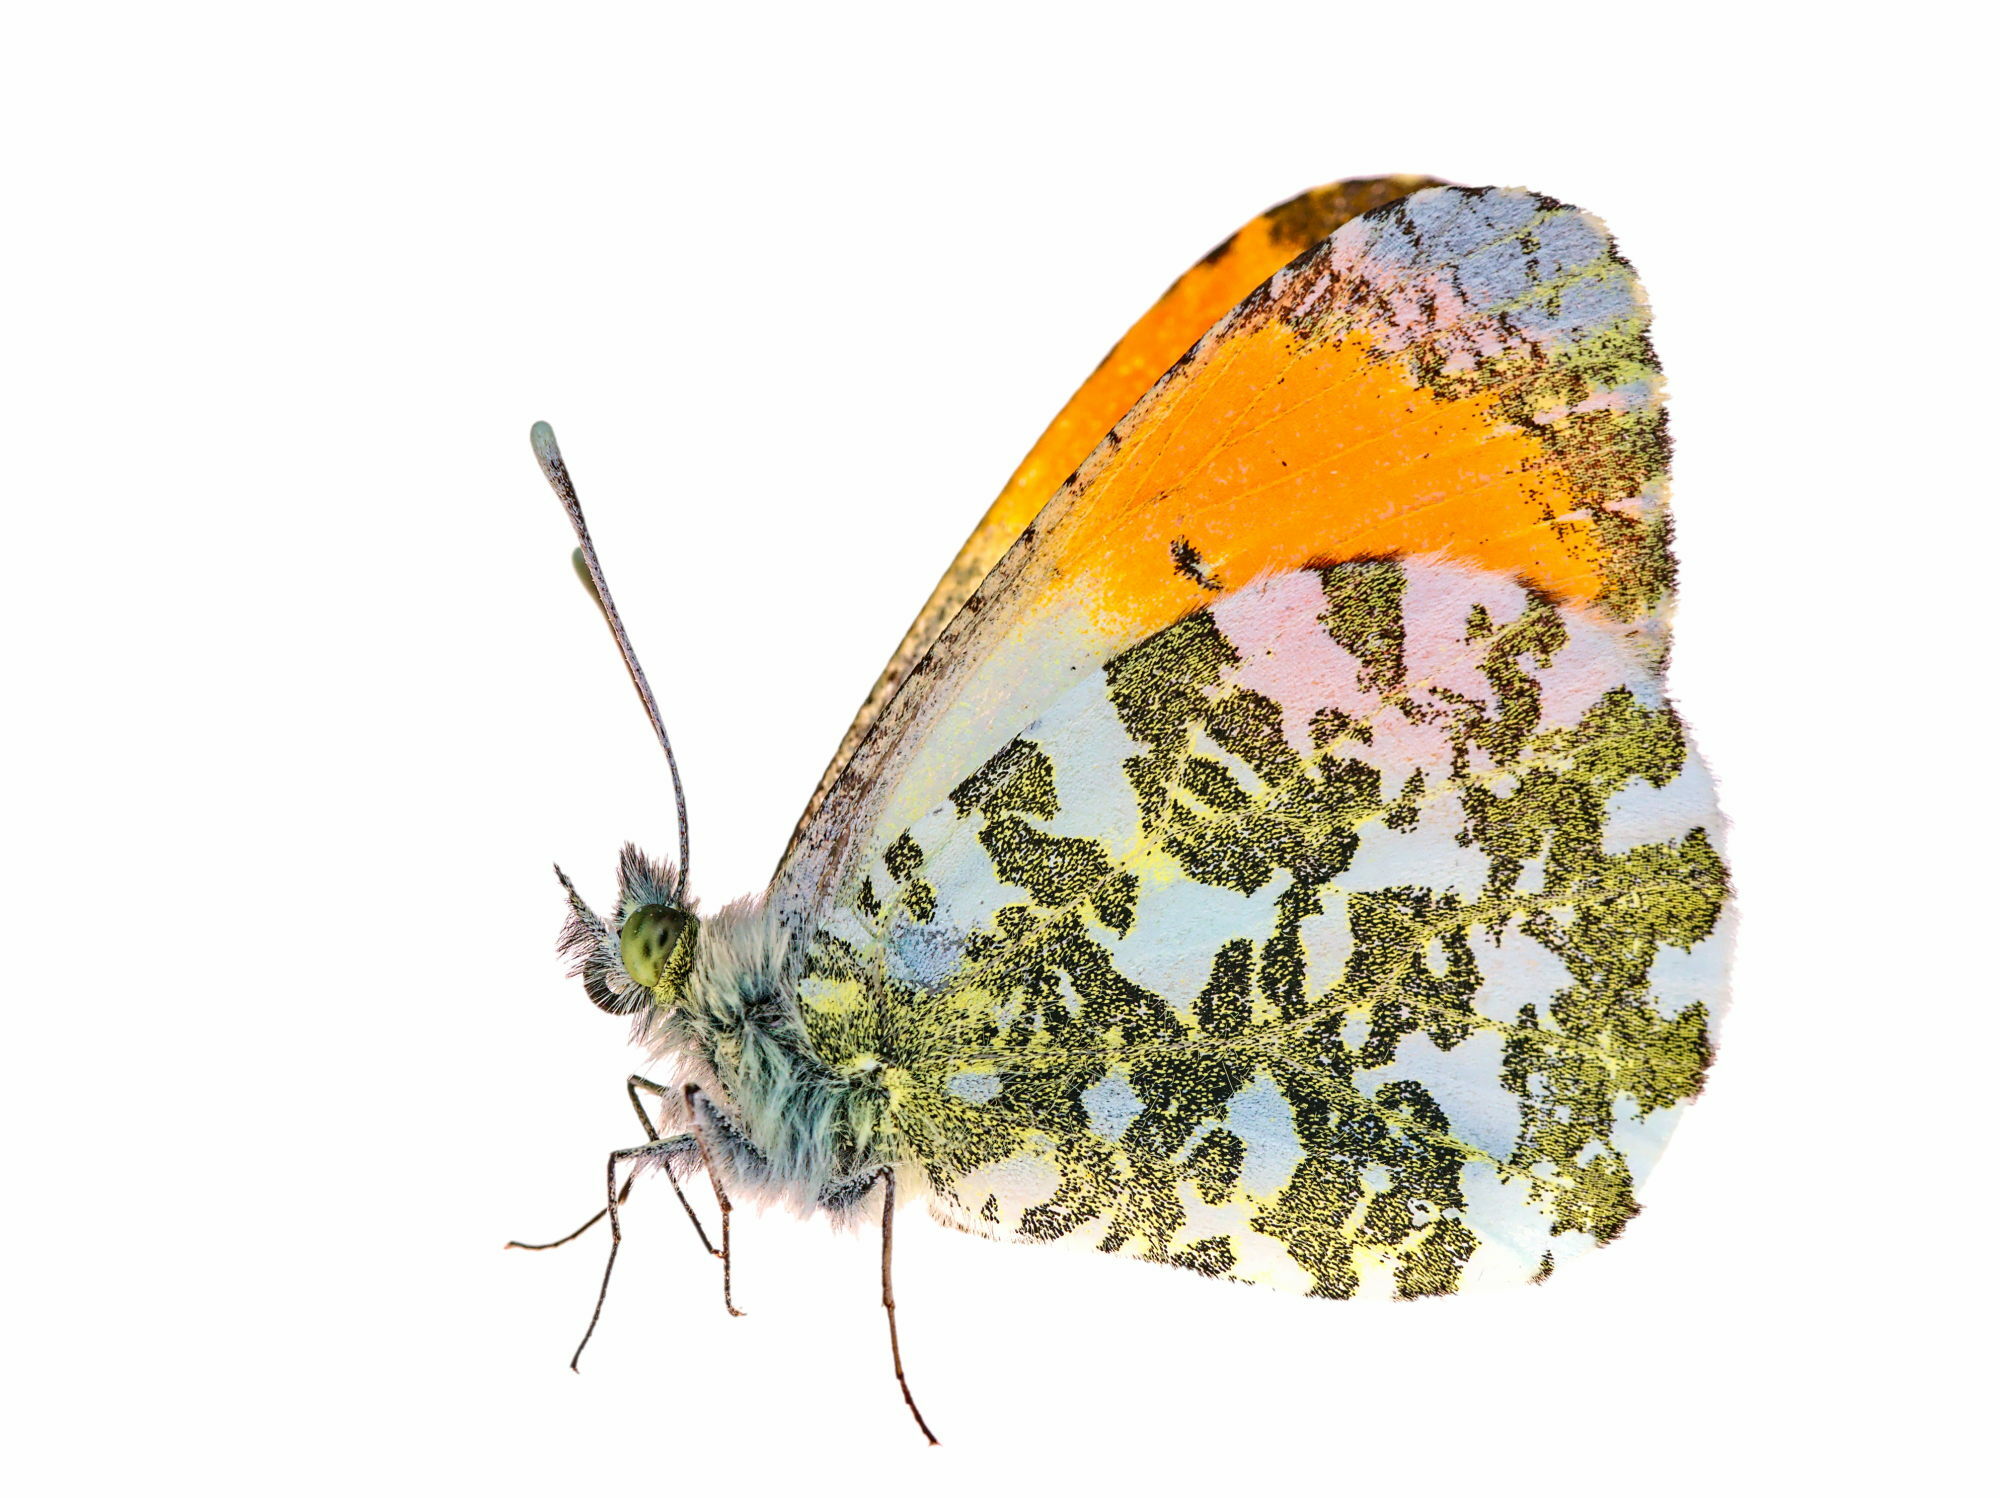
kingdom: Animalia
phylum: Arthropoda
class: Insecta
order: Lepidoptera
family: Pieridae
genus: Anthocharis
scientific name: Anthocharis cardamines
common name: Orange-tip
